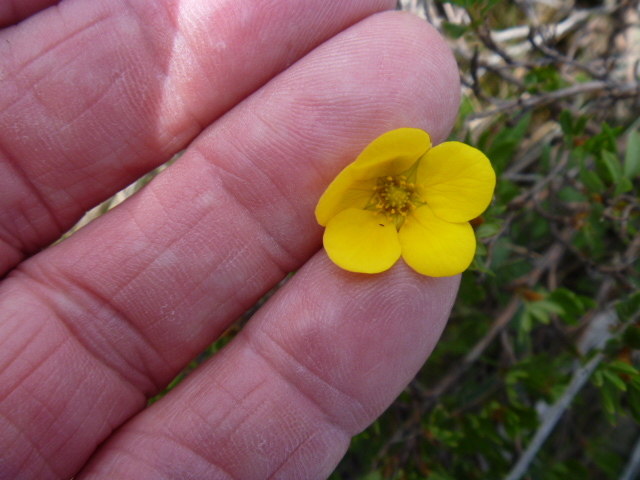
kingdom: Plantae
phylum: Tracheophyta
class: Magnoliopsida
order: Rosales
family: Rosaceae
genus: Dasiphora
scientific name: Dasiphora fruticosa
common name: Shrubby cinquefoil
